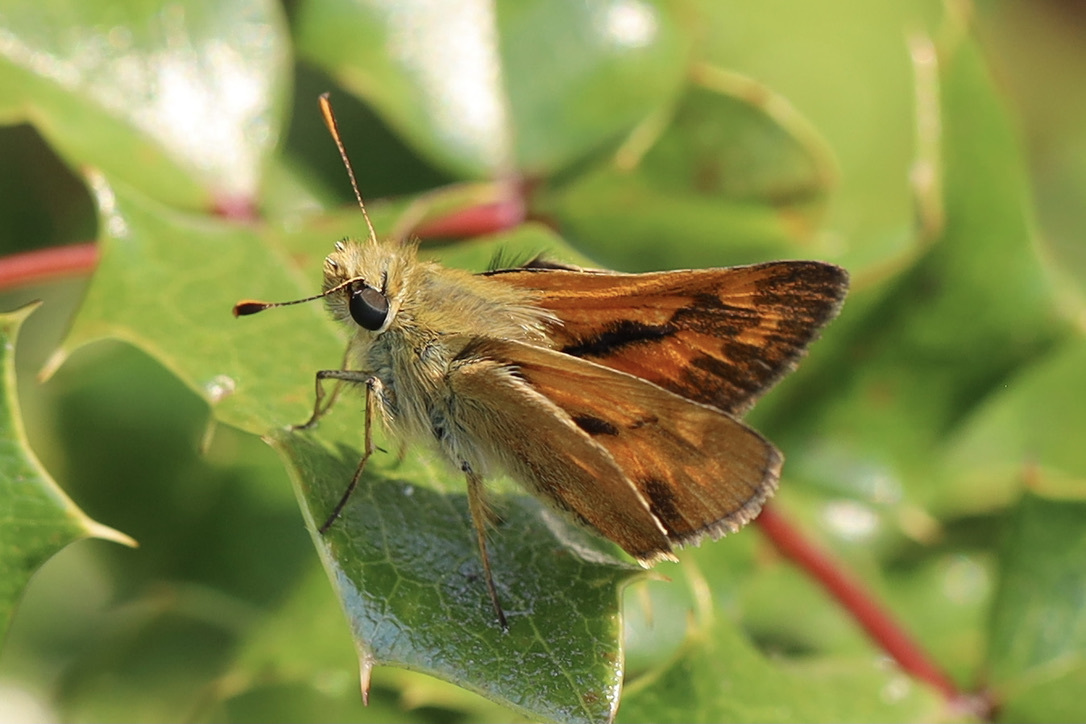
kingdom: Animalia
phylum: Arthropoda
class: Insecta
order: Lepidoptera
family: Hesperiidae
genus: Ochlodes
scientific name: Ochlodes sylvanoides
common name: Woodland skipper
